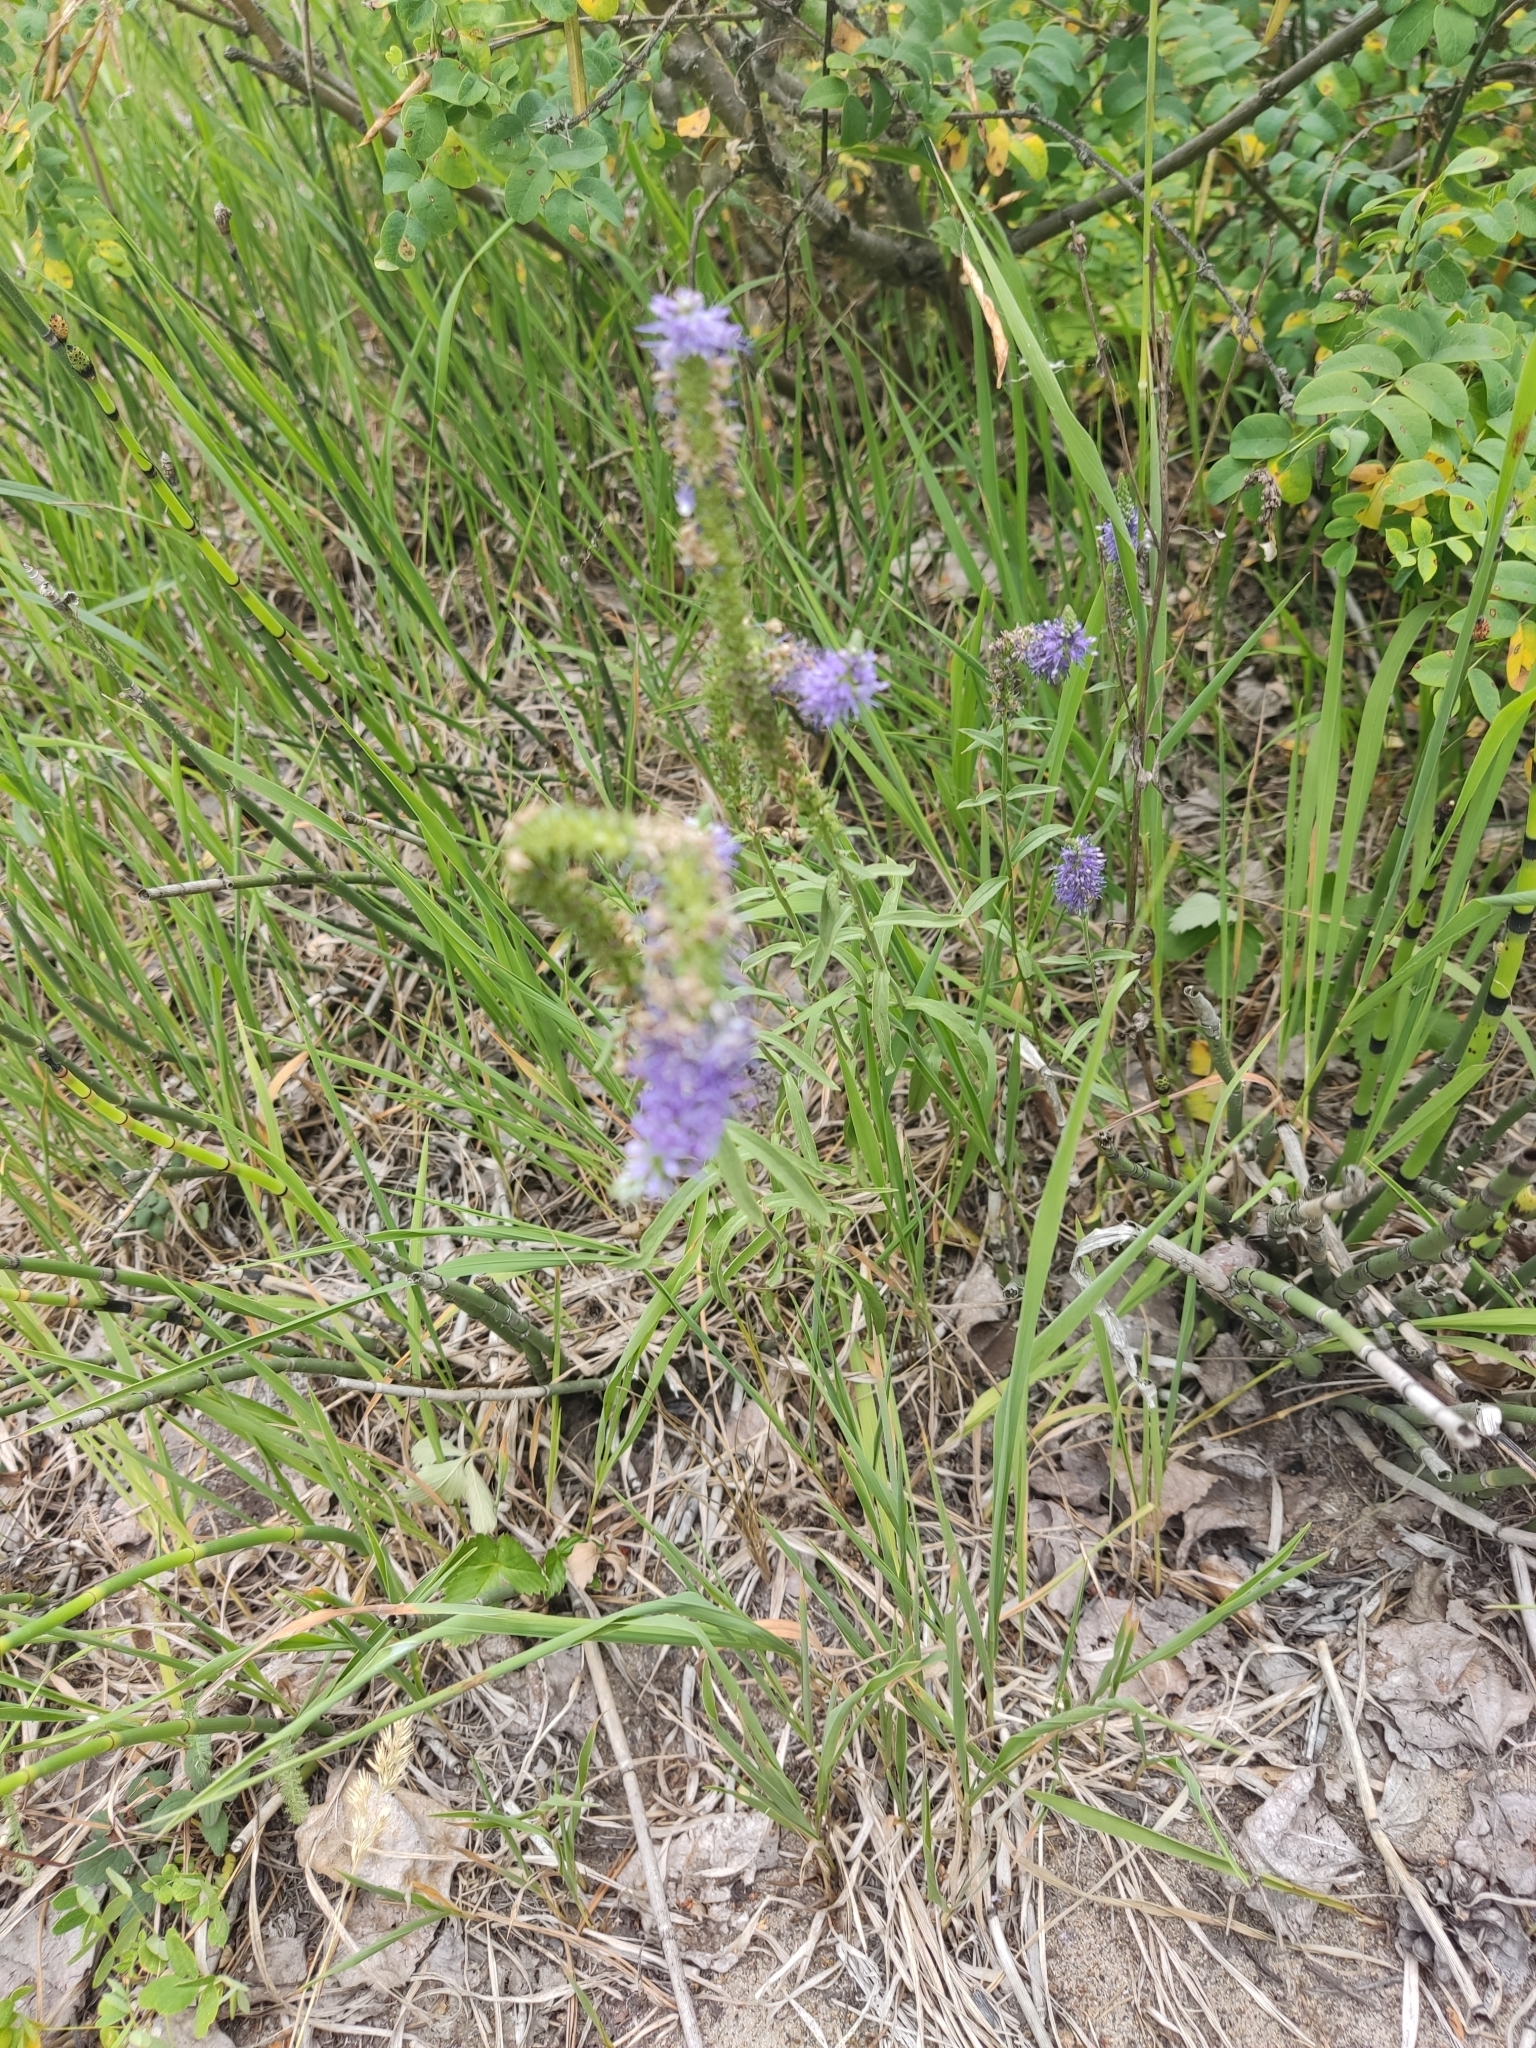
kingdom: Plantae
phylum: Tracheophyta
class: Magnoliopsida
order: Lamiales
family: Plantaginaceae
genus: Veronica
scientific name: Veronica spicata
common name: Spiked speedwell
